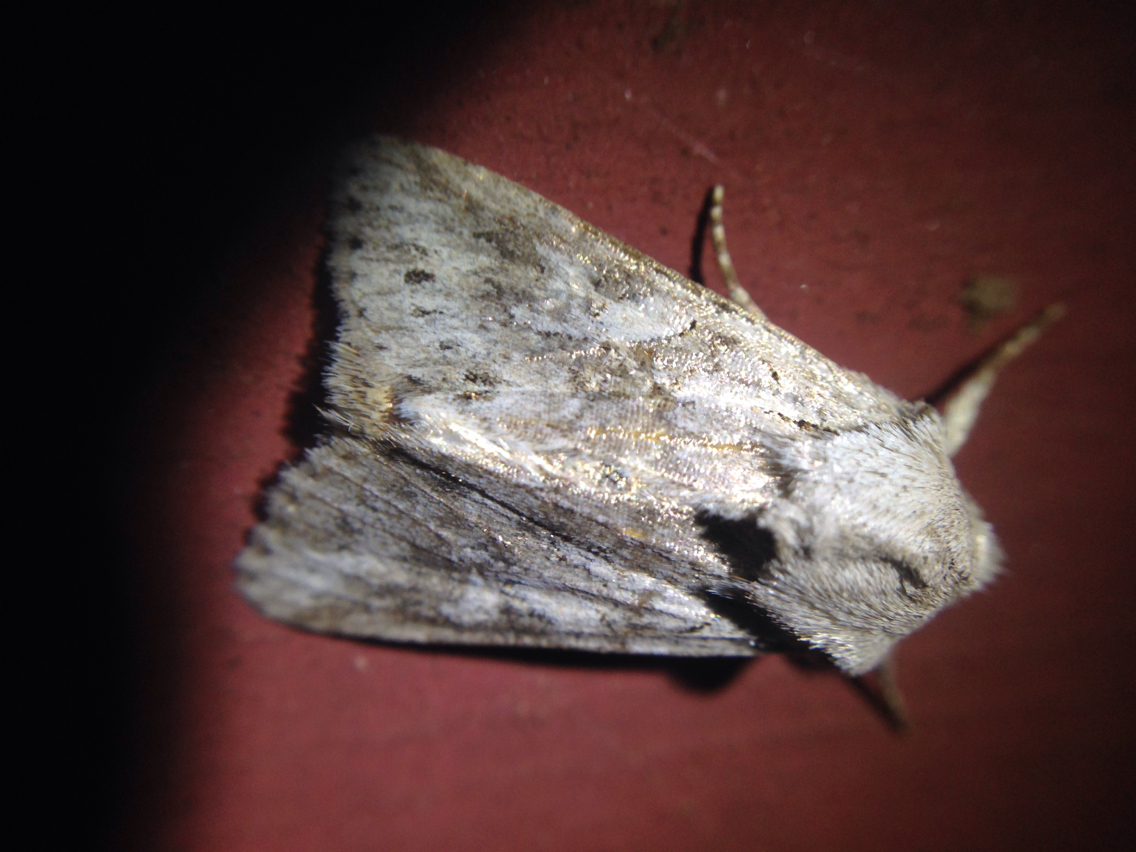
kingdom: Animalia
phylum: Arthropoda
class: Insecta
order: Lepidoptera
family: Noctuidae
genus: Lacinipolia
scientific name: Lacinipolia patalis
